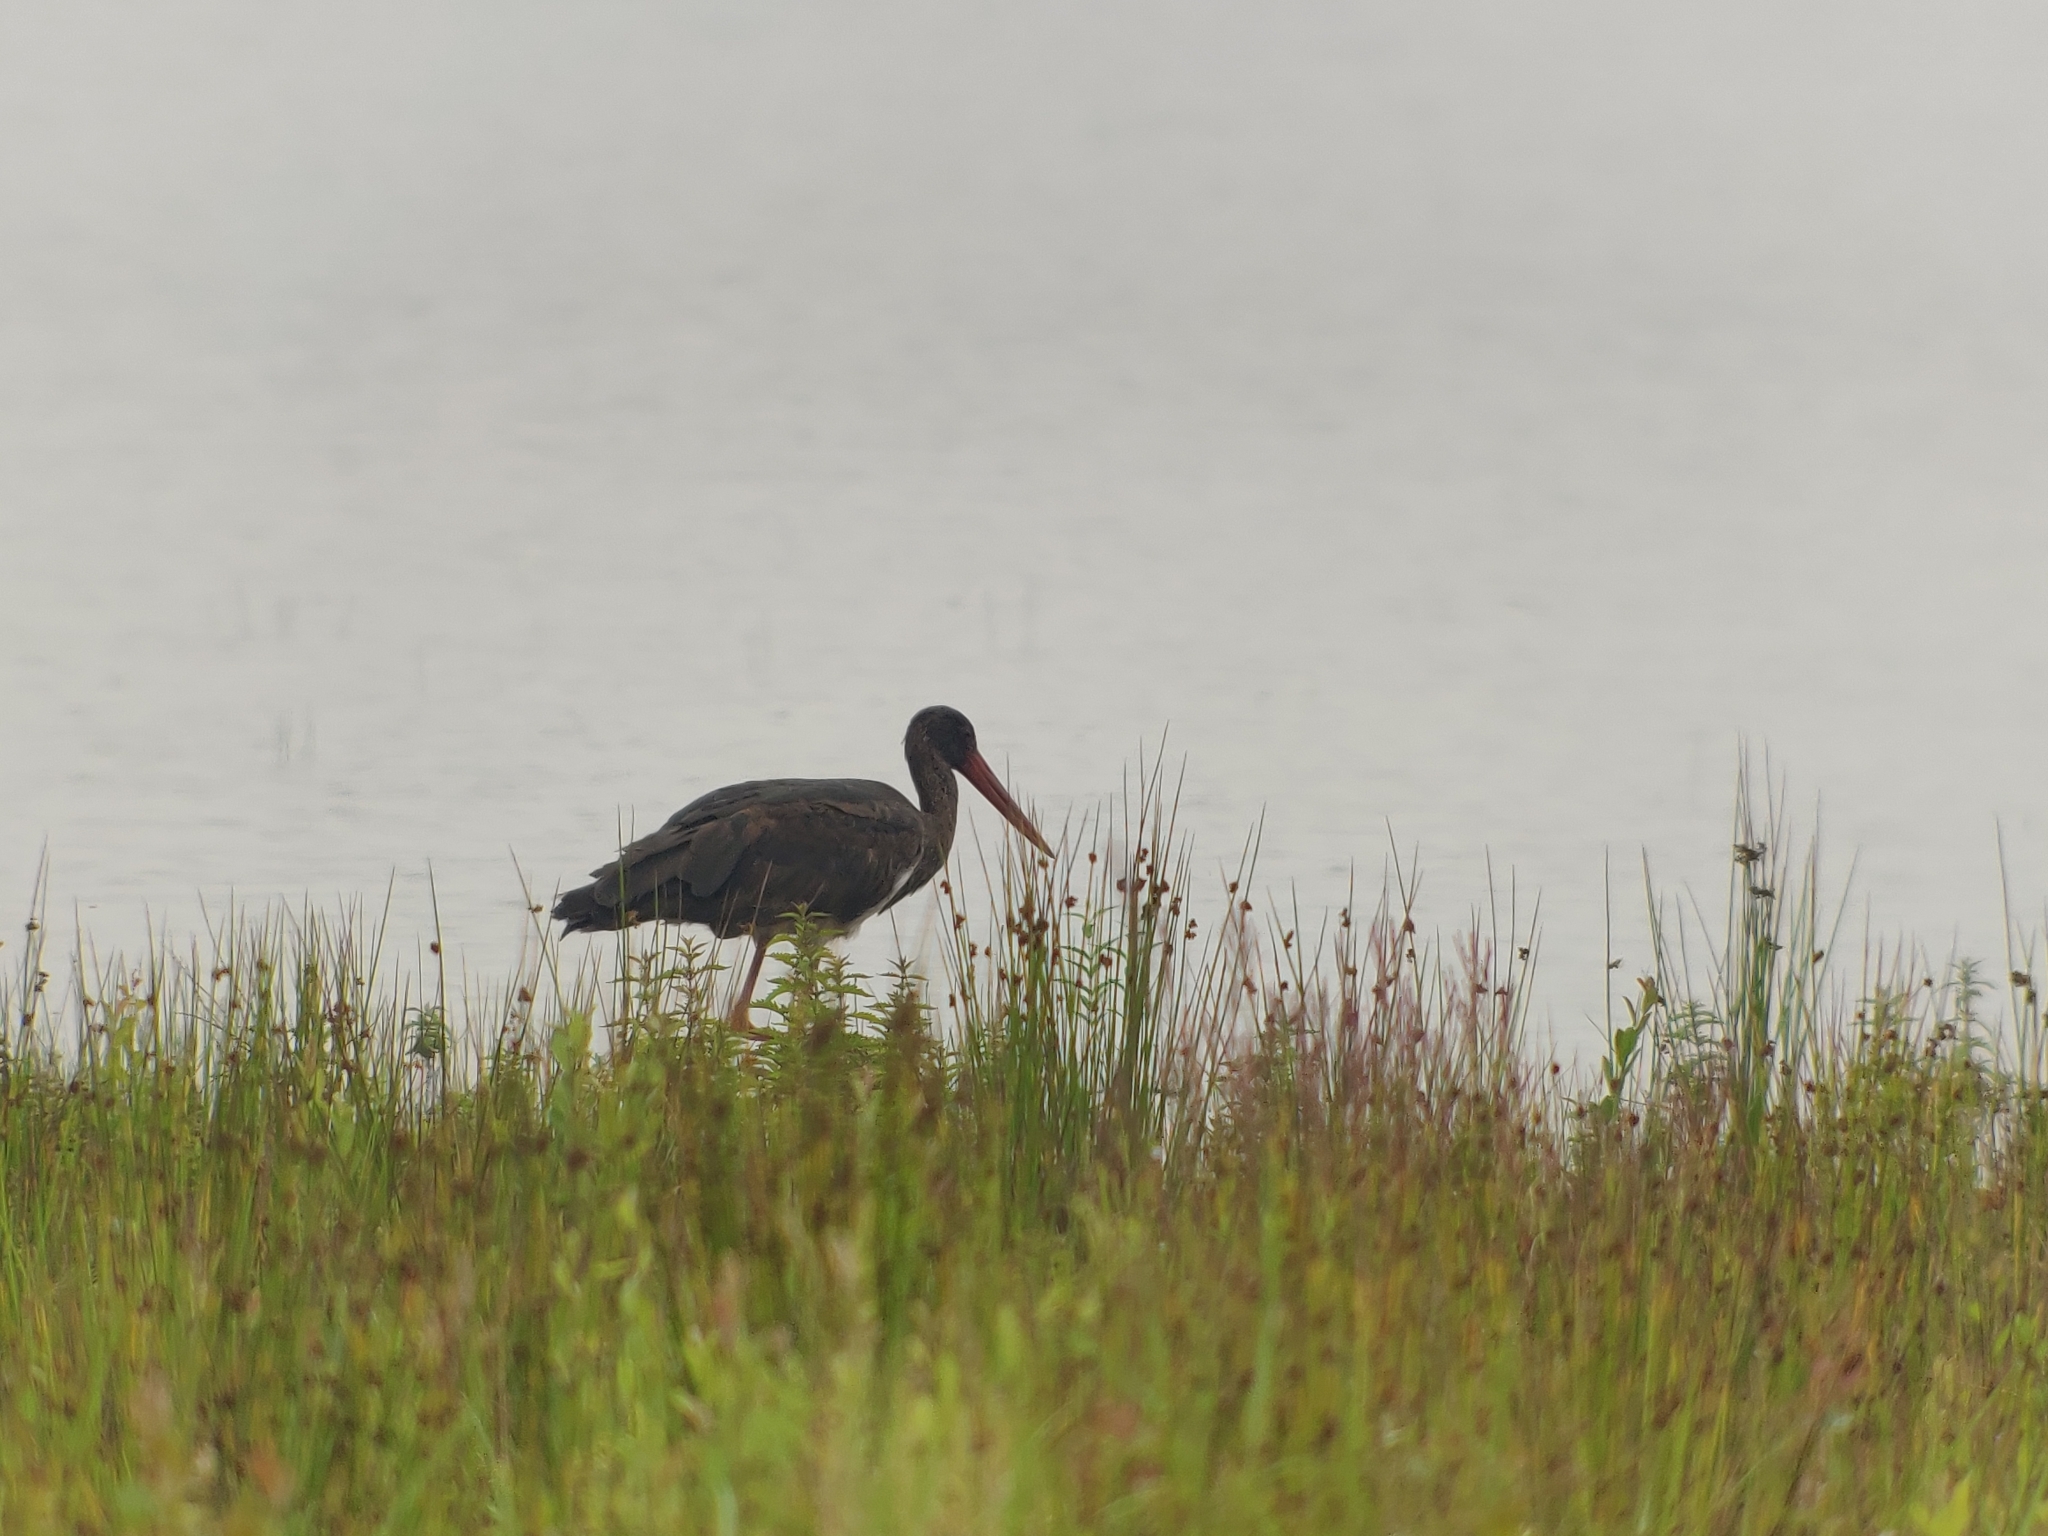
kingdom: Animalia
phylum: Chordata
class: Aves
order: Ciconiiformes
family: Ciconiidae
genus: Ciconia
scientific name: Ciconia nigra
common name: Black stork
